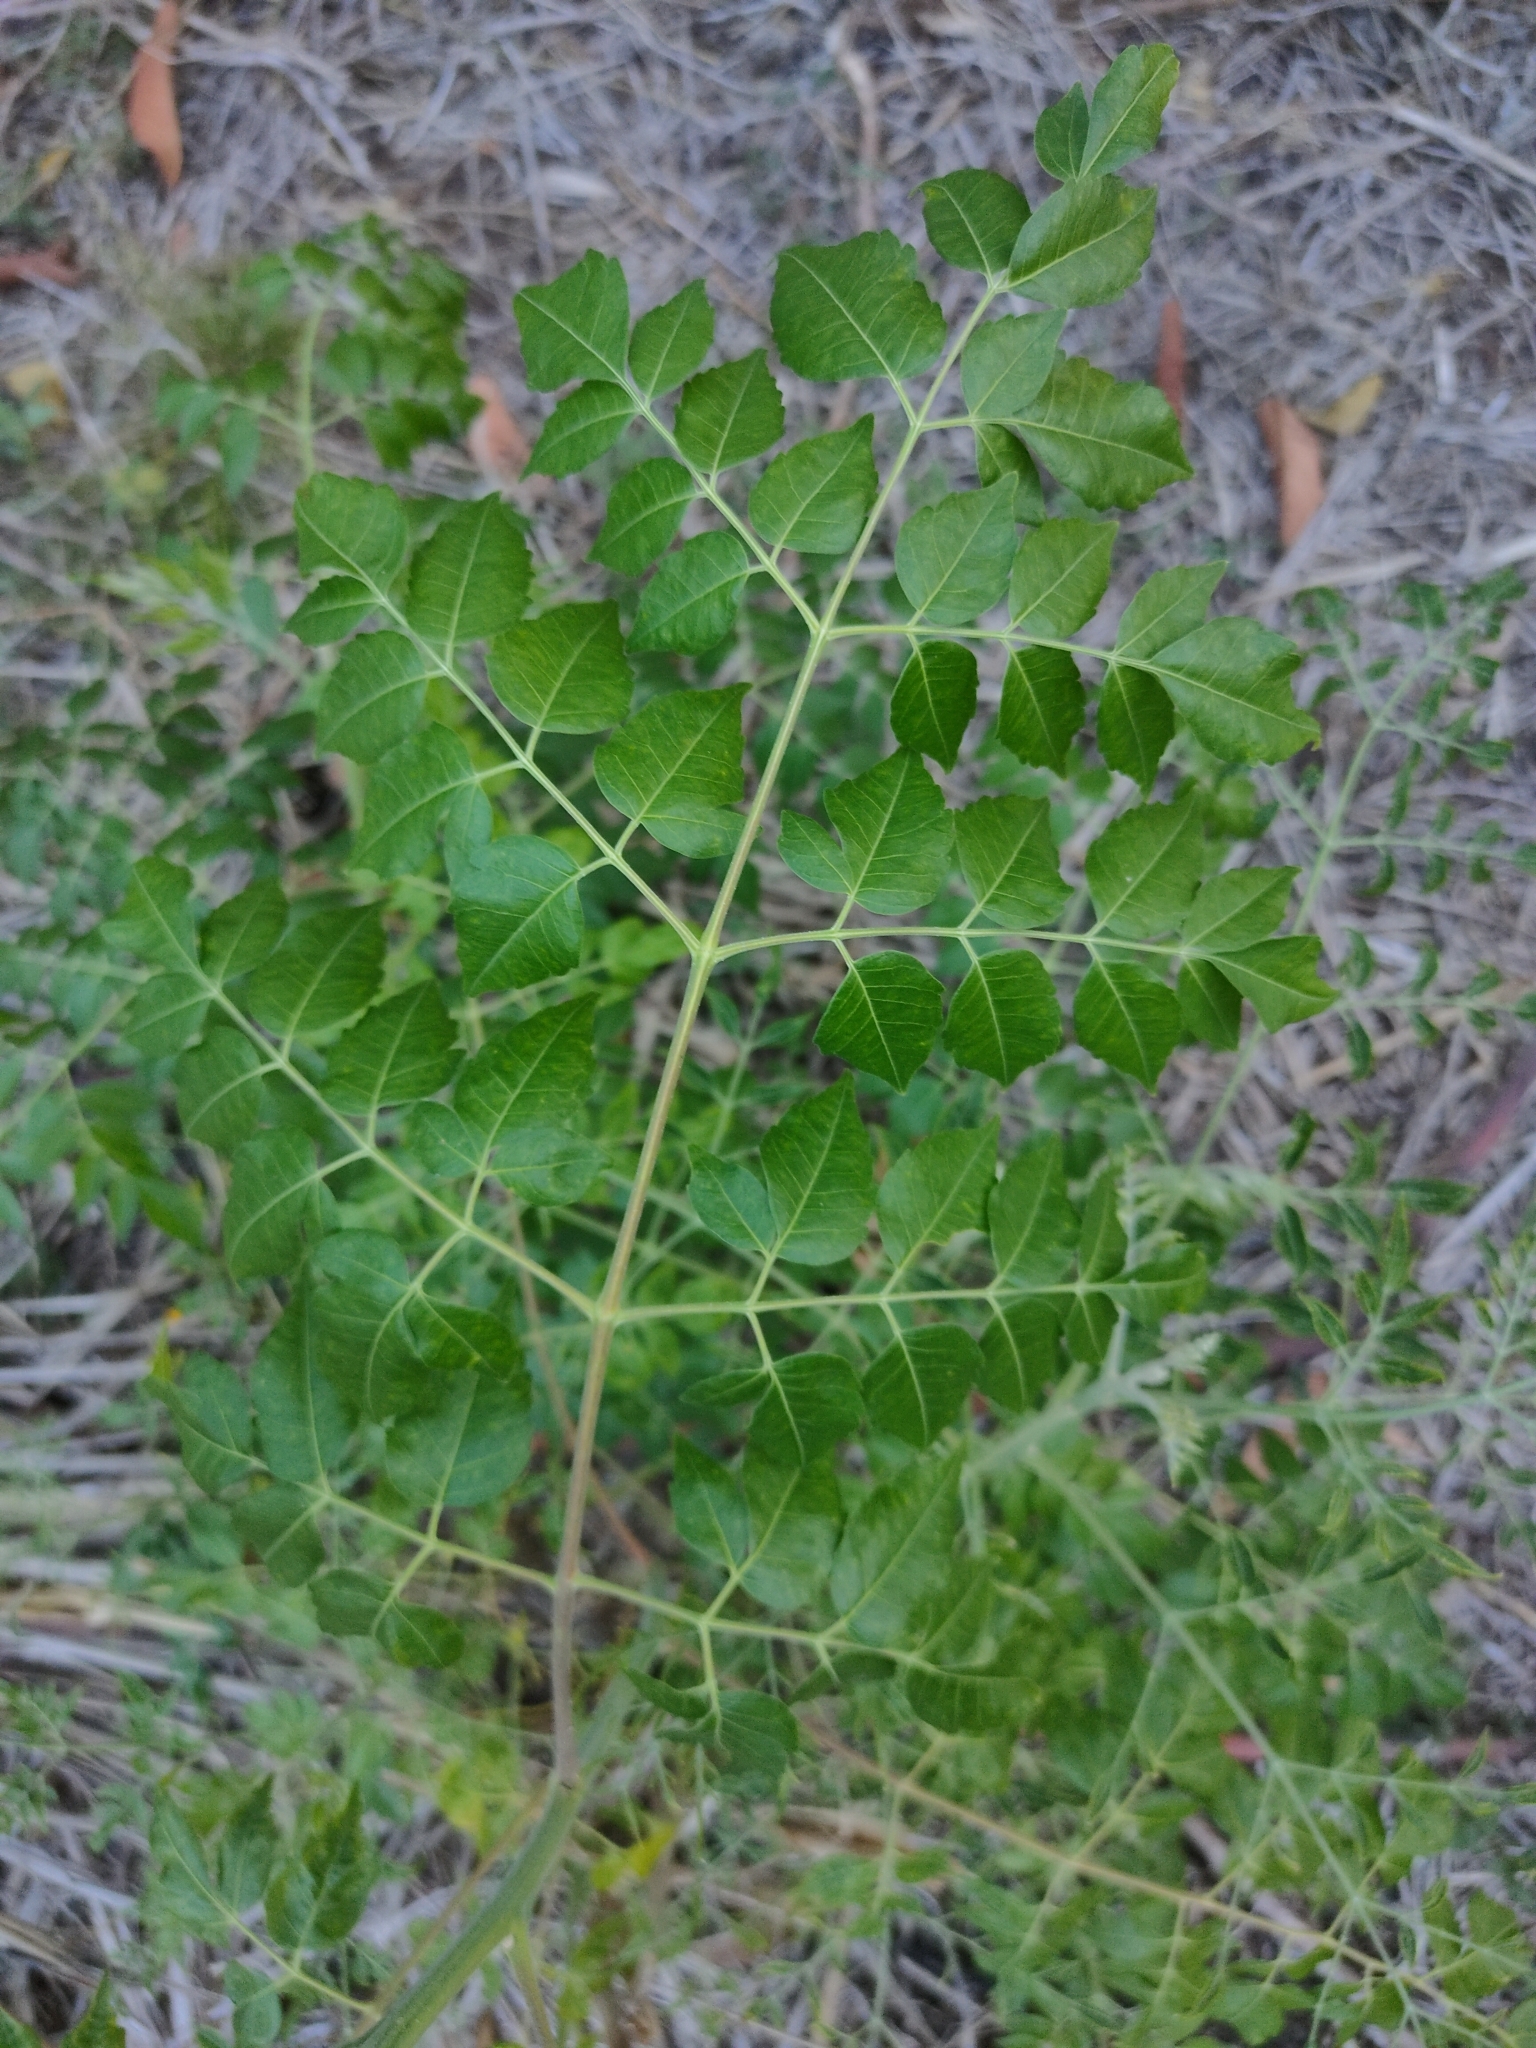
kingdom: Plantae
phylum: Tracheophyta
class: Magnoliopsida
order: Sapindales
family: Meliaceae
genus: Melia
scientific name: Melia azedarach
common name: Chinaberrytree
